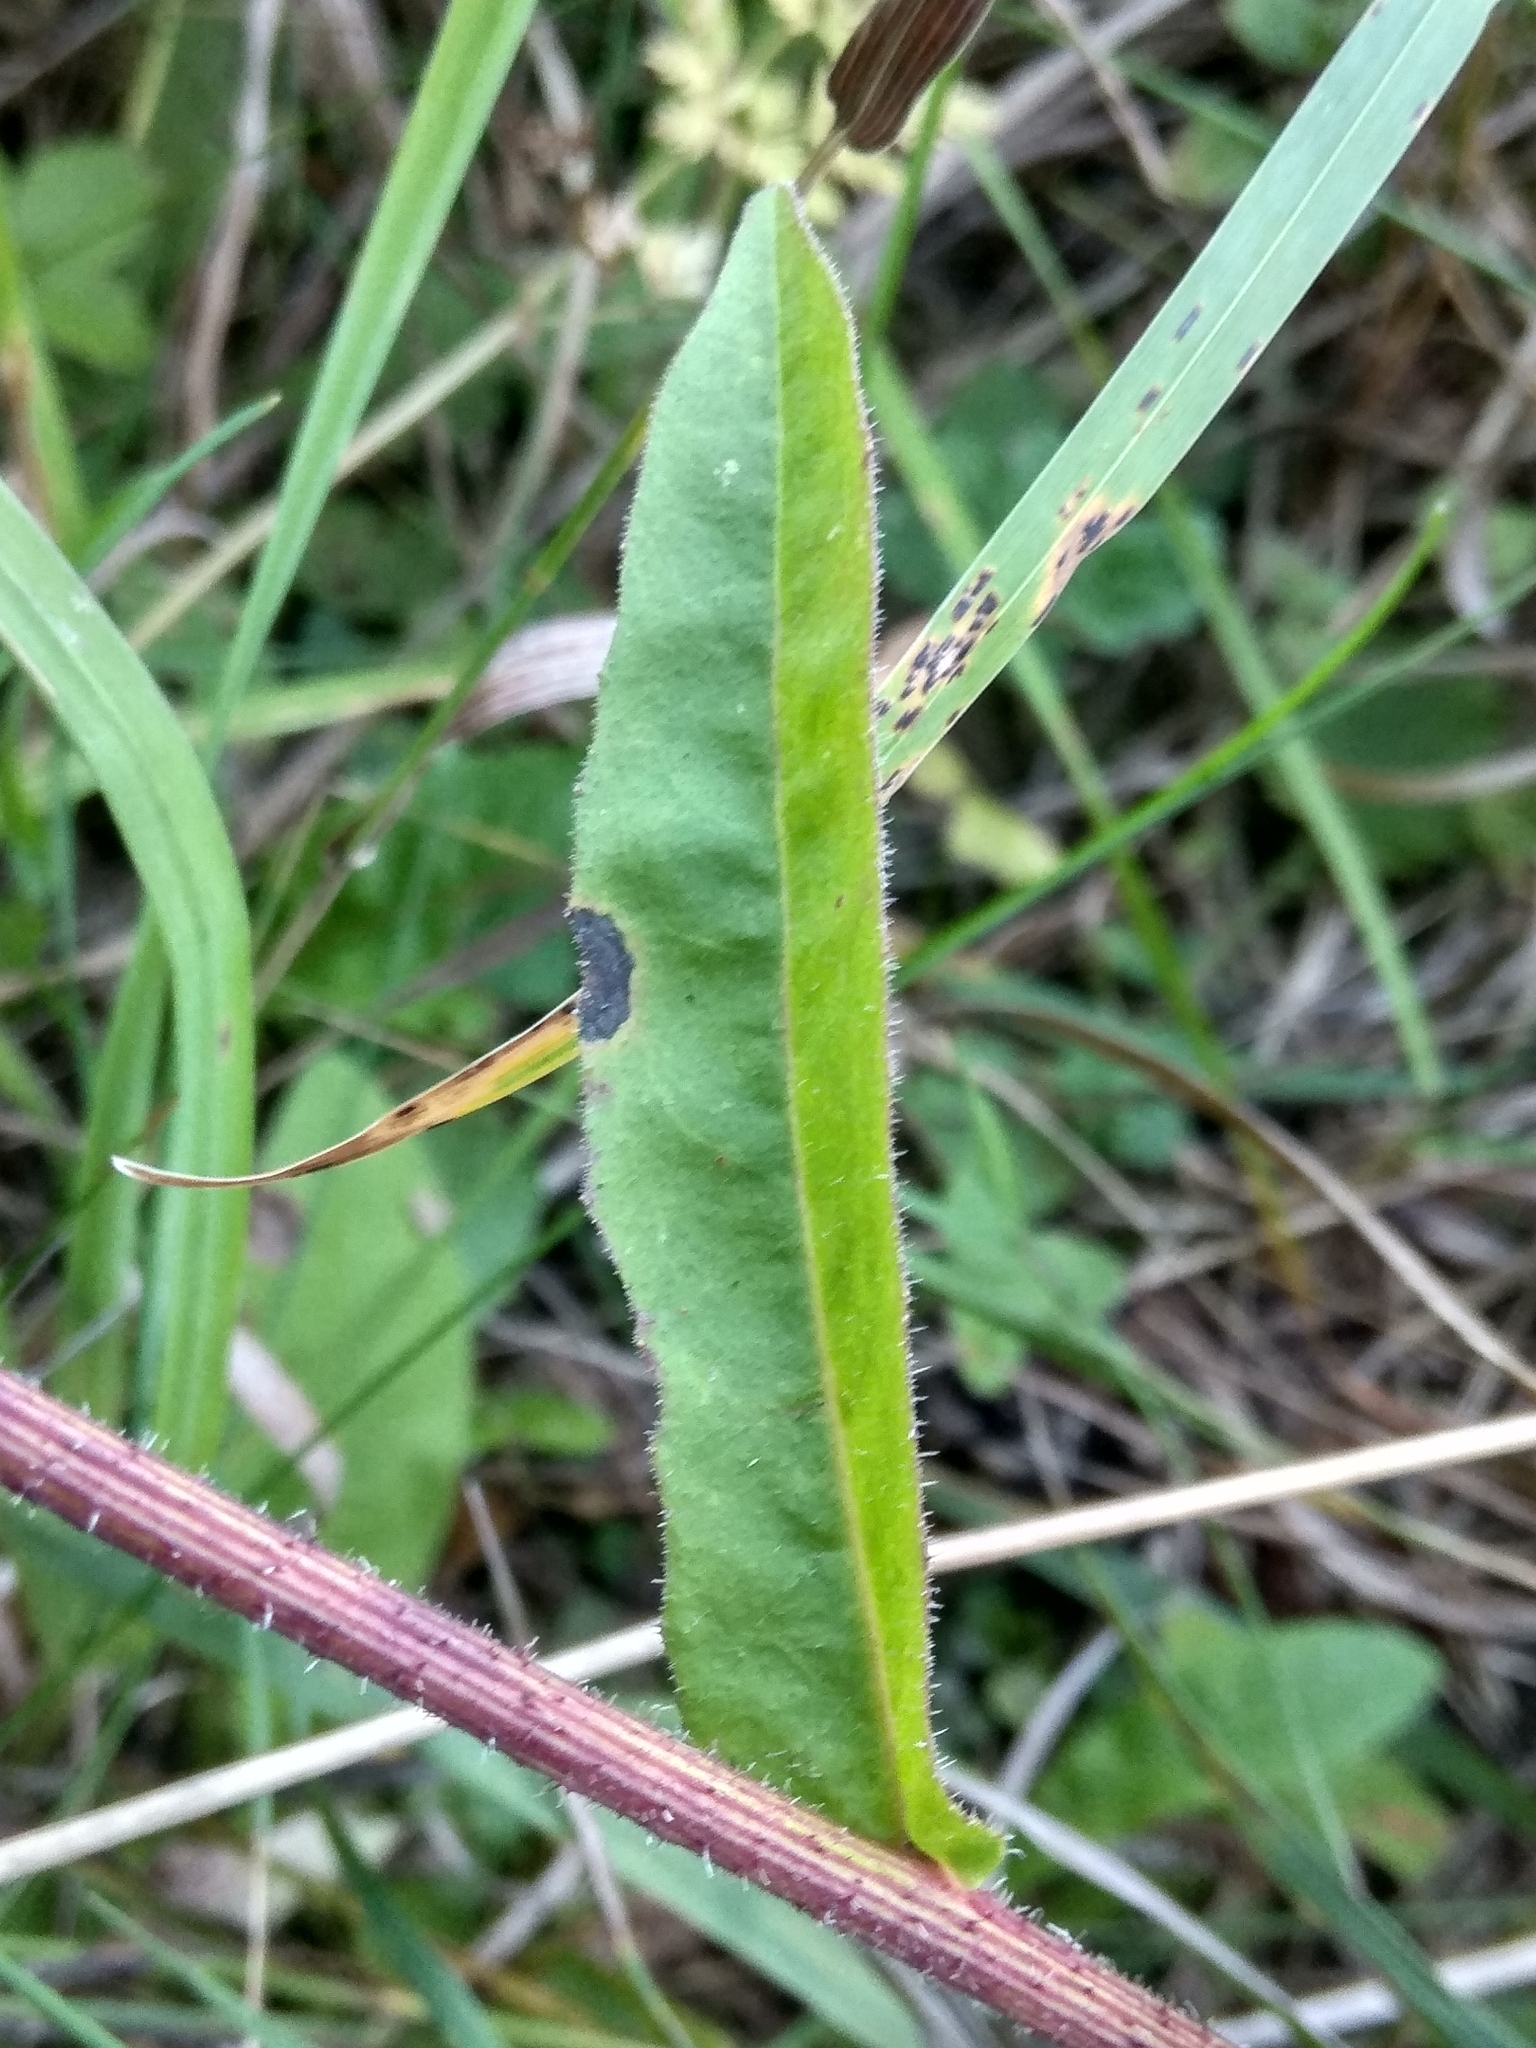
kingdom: Plantae
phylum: Tracheophyta
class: Magnoliopsida
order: Asterales
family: Asteraceae
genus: Picris
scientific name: Picris hieracioides
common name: Hawkweed oxtongue
